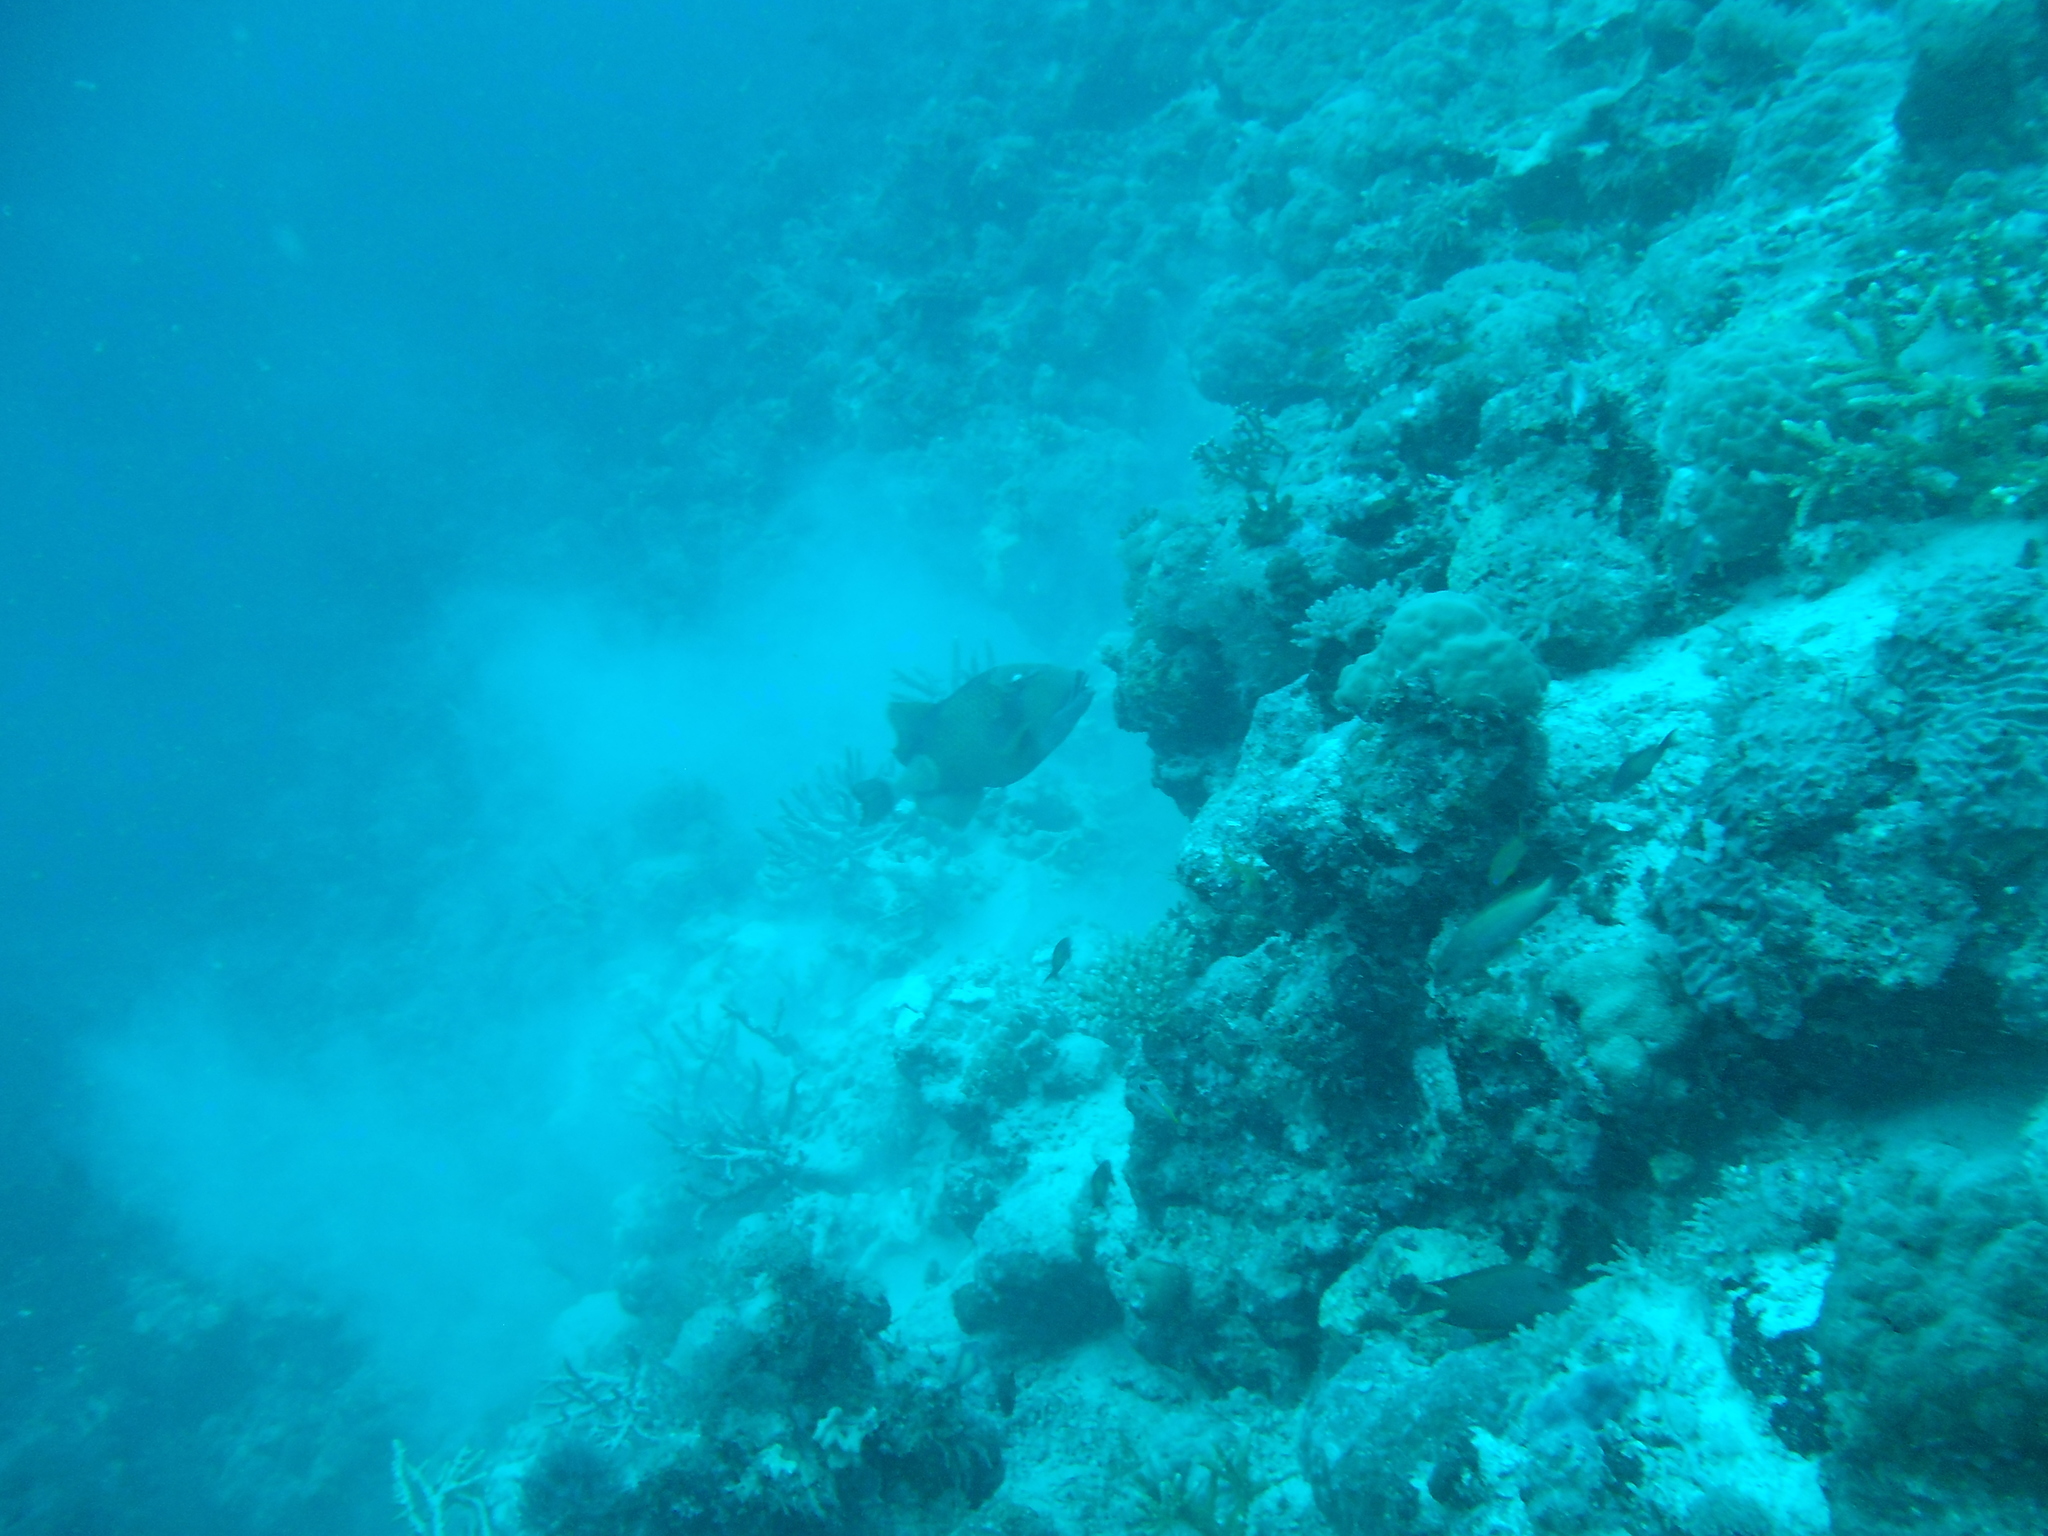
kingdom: Animalia
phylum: Chordata
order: Tetraodontiformes
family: Balistidae
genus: Balistoides
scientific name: Balistoides viridescens
